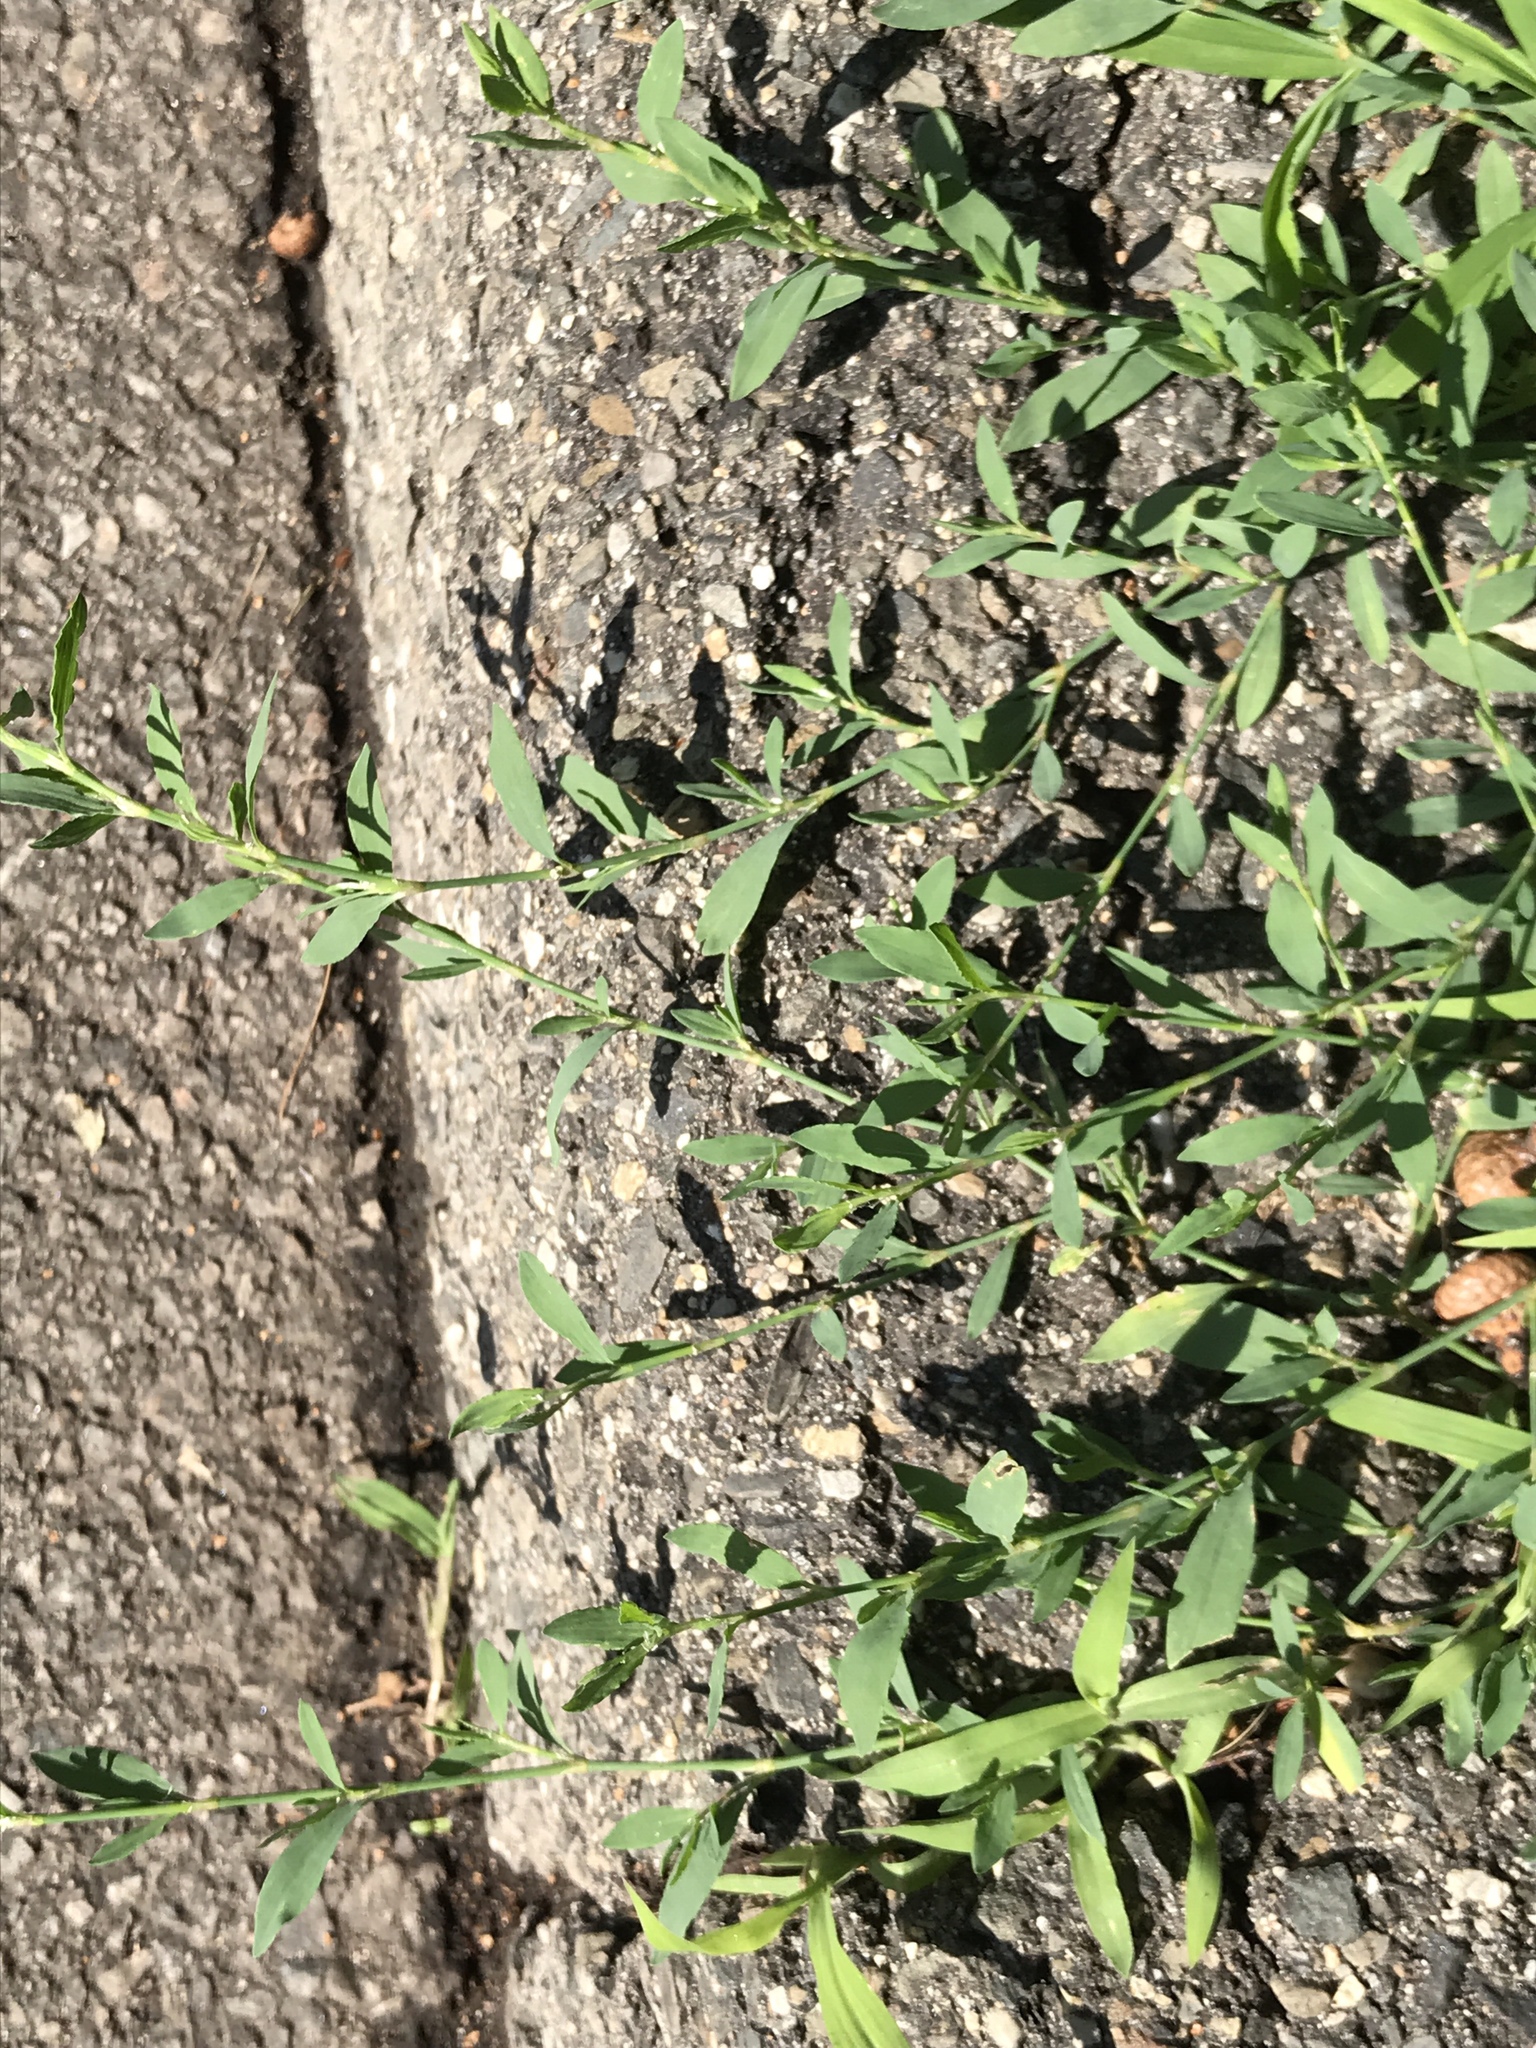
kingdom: Plantae
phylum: Tracheophyta
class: Magnoliopsida
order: Caryophyllales
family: Polygonaceae
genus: Polygonum
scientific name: Polygonum aviculare
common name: Prostrate knotweed
